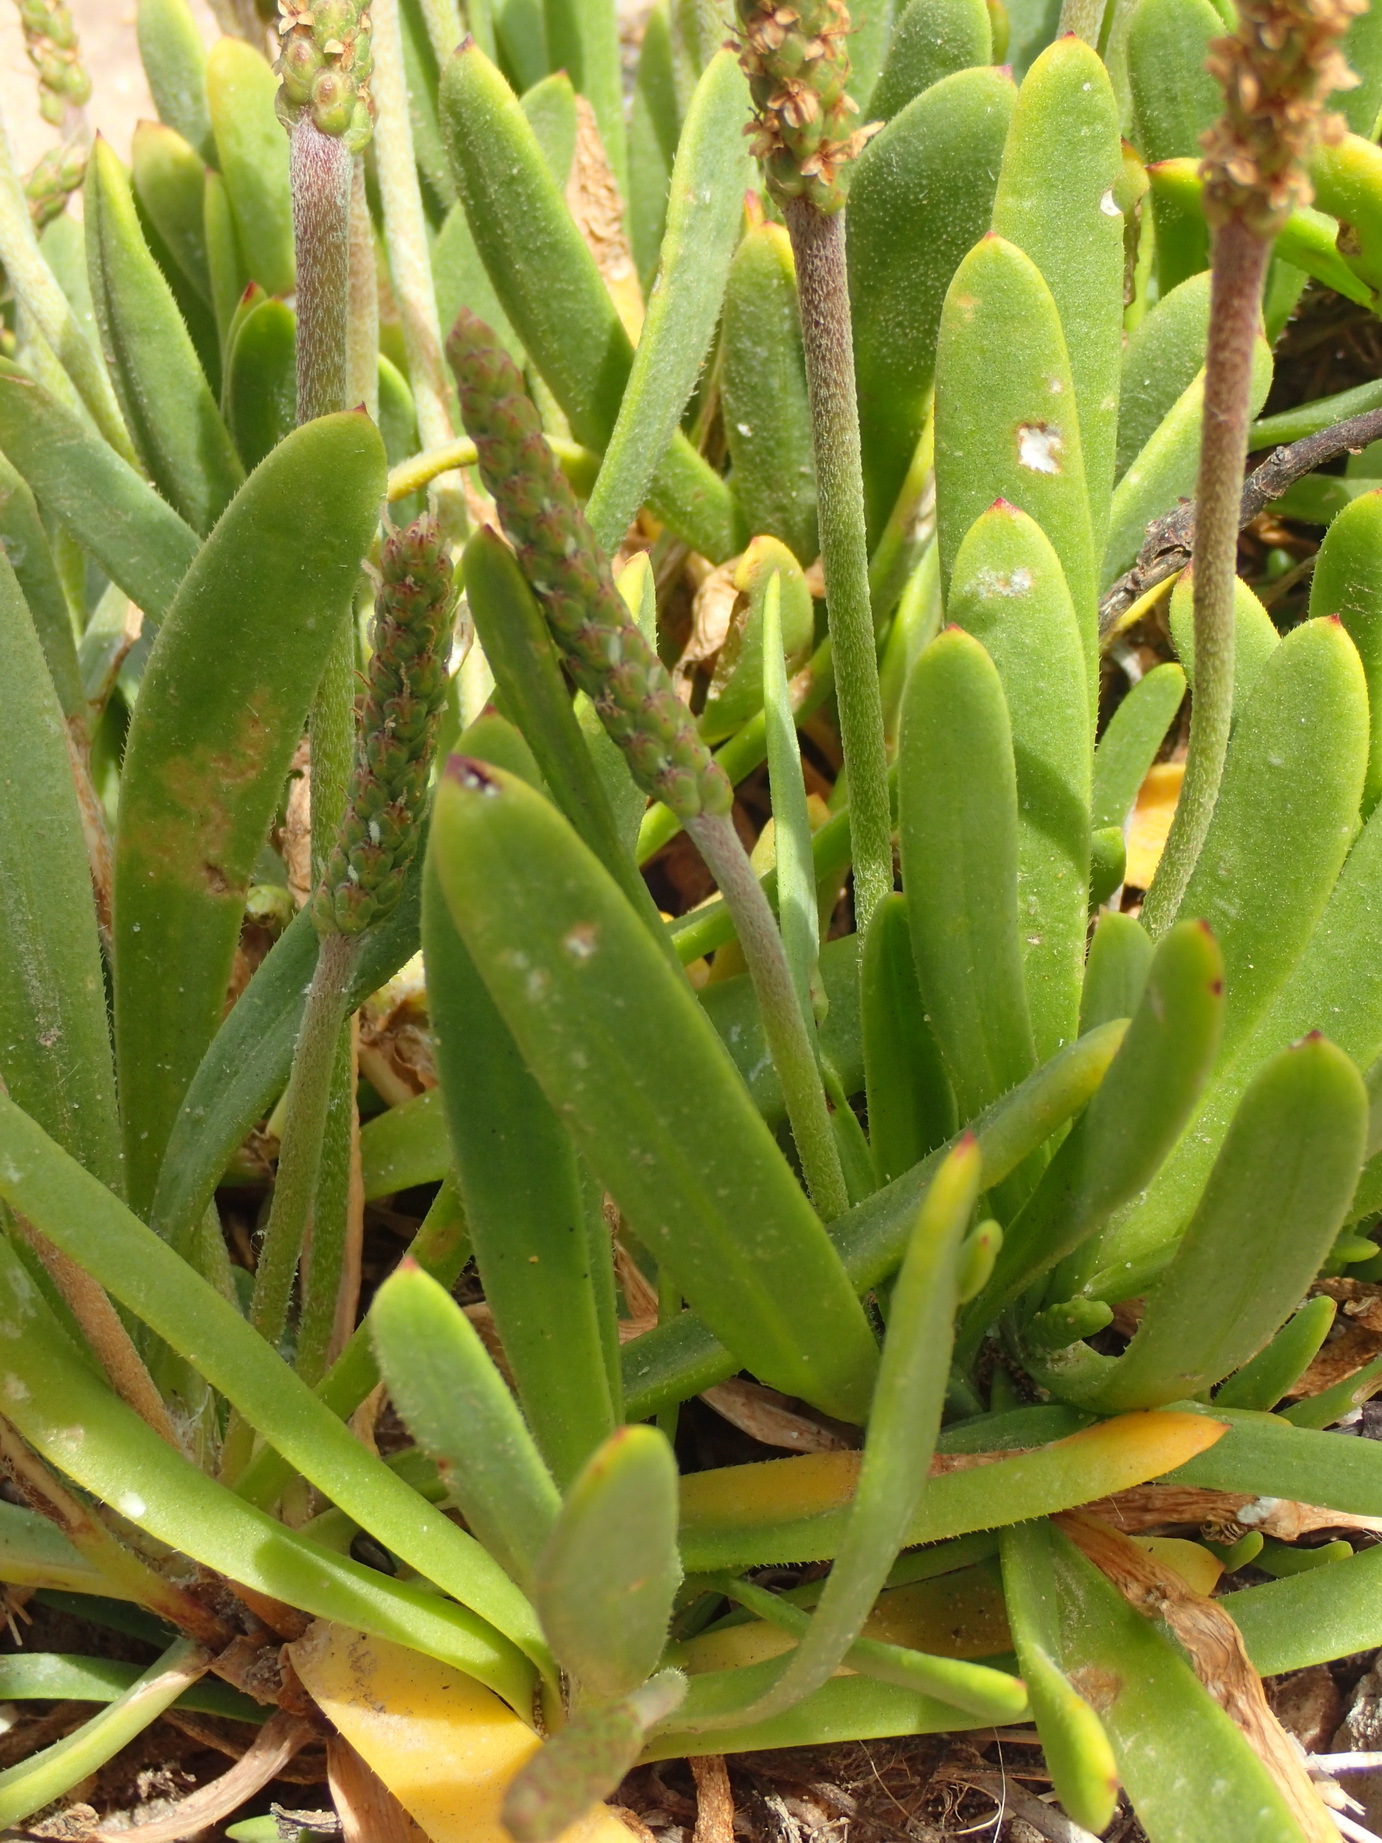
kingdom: Plantae
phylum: Tracheophyta
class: Magnoliopsida
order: Lamiales
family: Plantaginaceae
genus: Plantago
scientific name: Plantago carnosa
